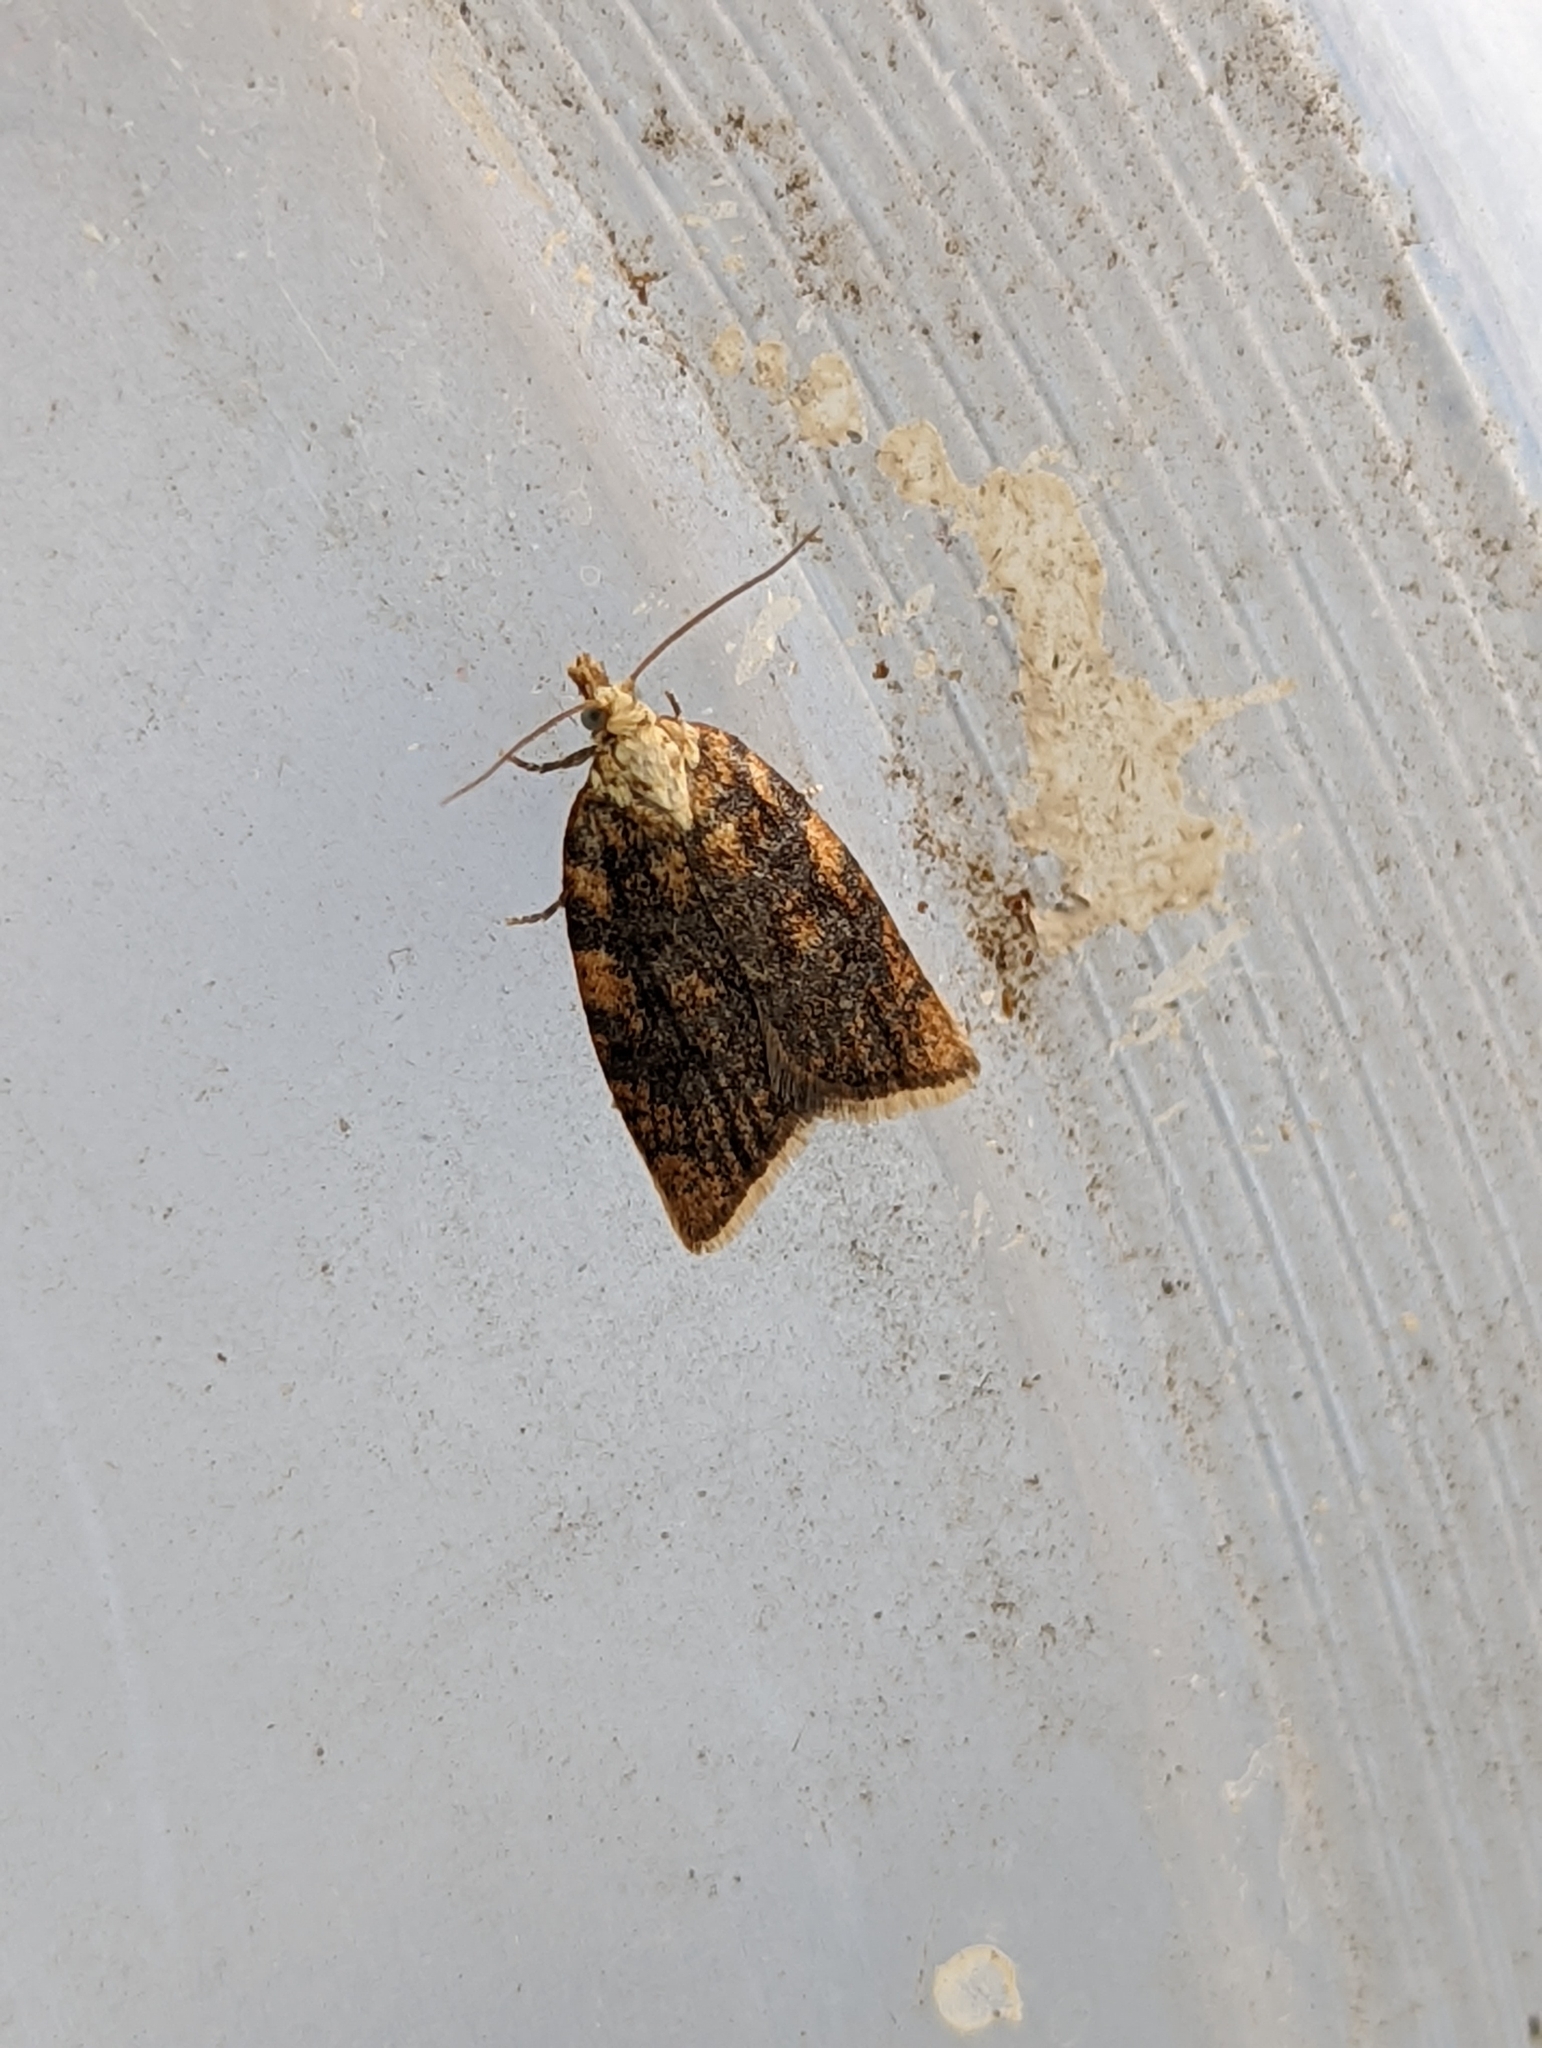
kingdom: Animalia
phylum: Arthropoda
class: Insecta
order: Lepidoptera
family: Tortricidae
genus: Aleimma
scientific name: Aleimma loeflingiana
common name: Yellow oak button
